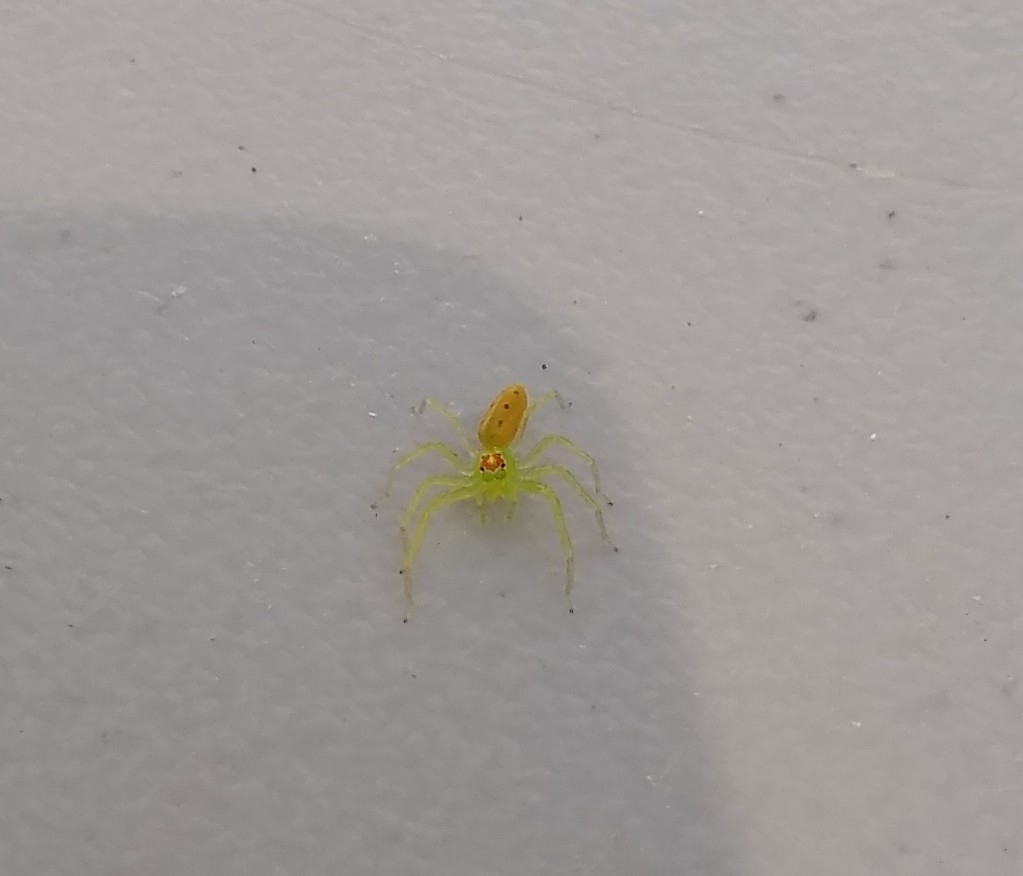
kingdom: Animalia
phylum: Arthropoda
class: Arachnida
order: Araneae
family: Salticidae
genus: Lyssomanes
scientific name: Lyssomanes viridis
